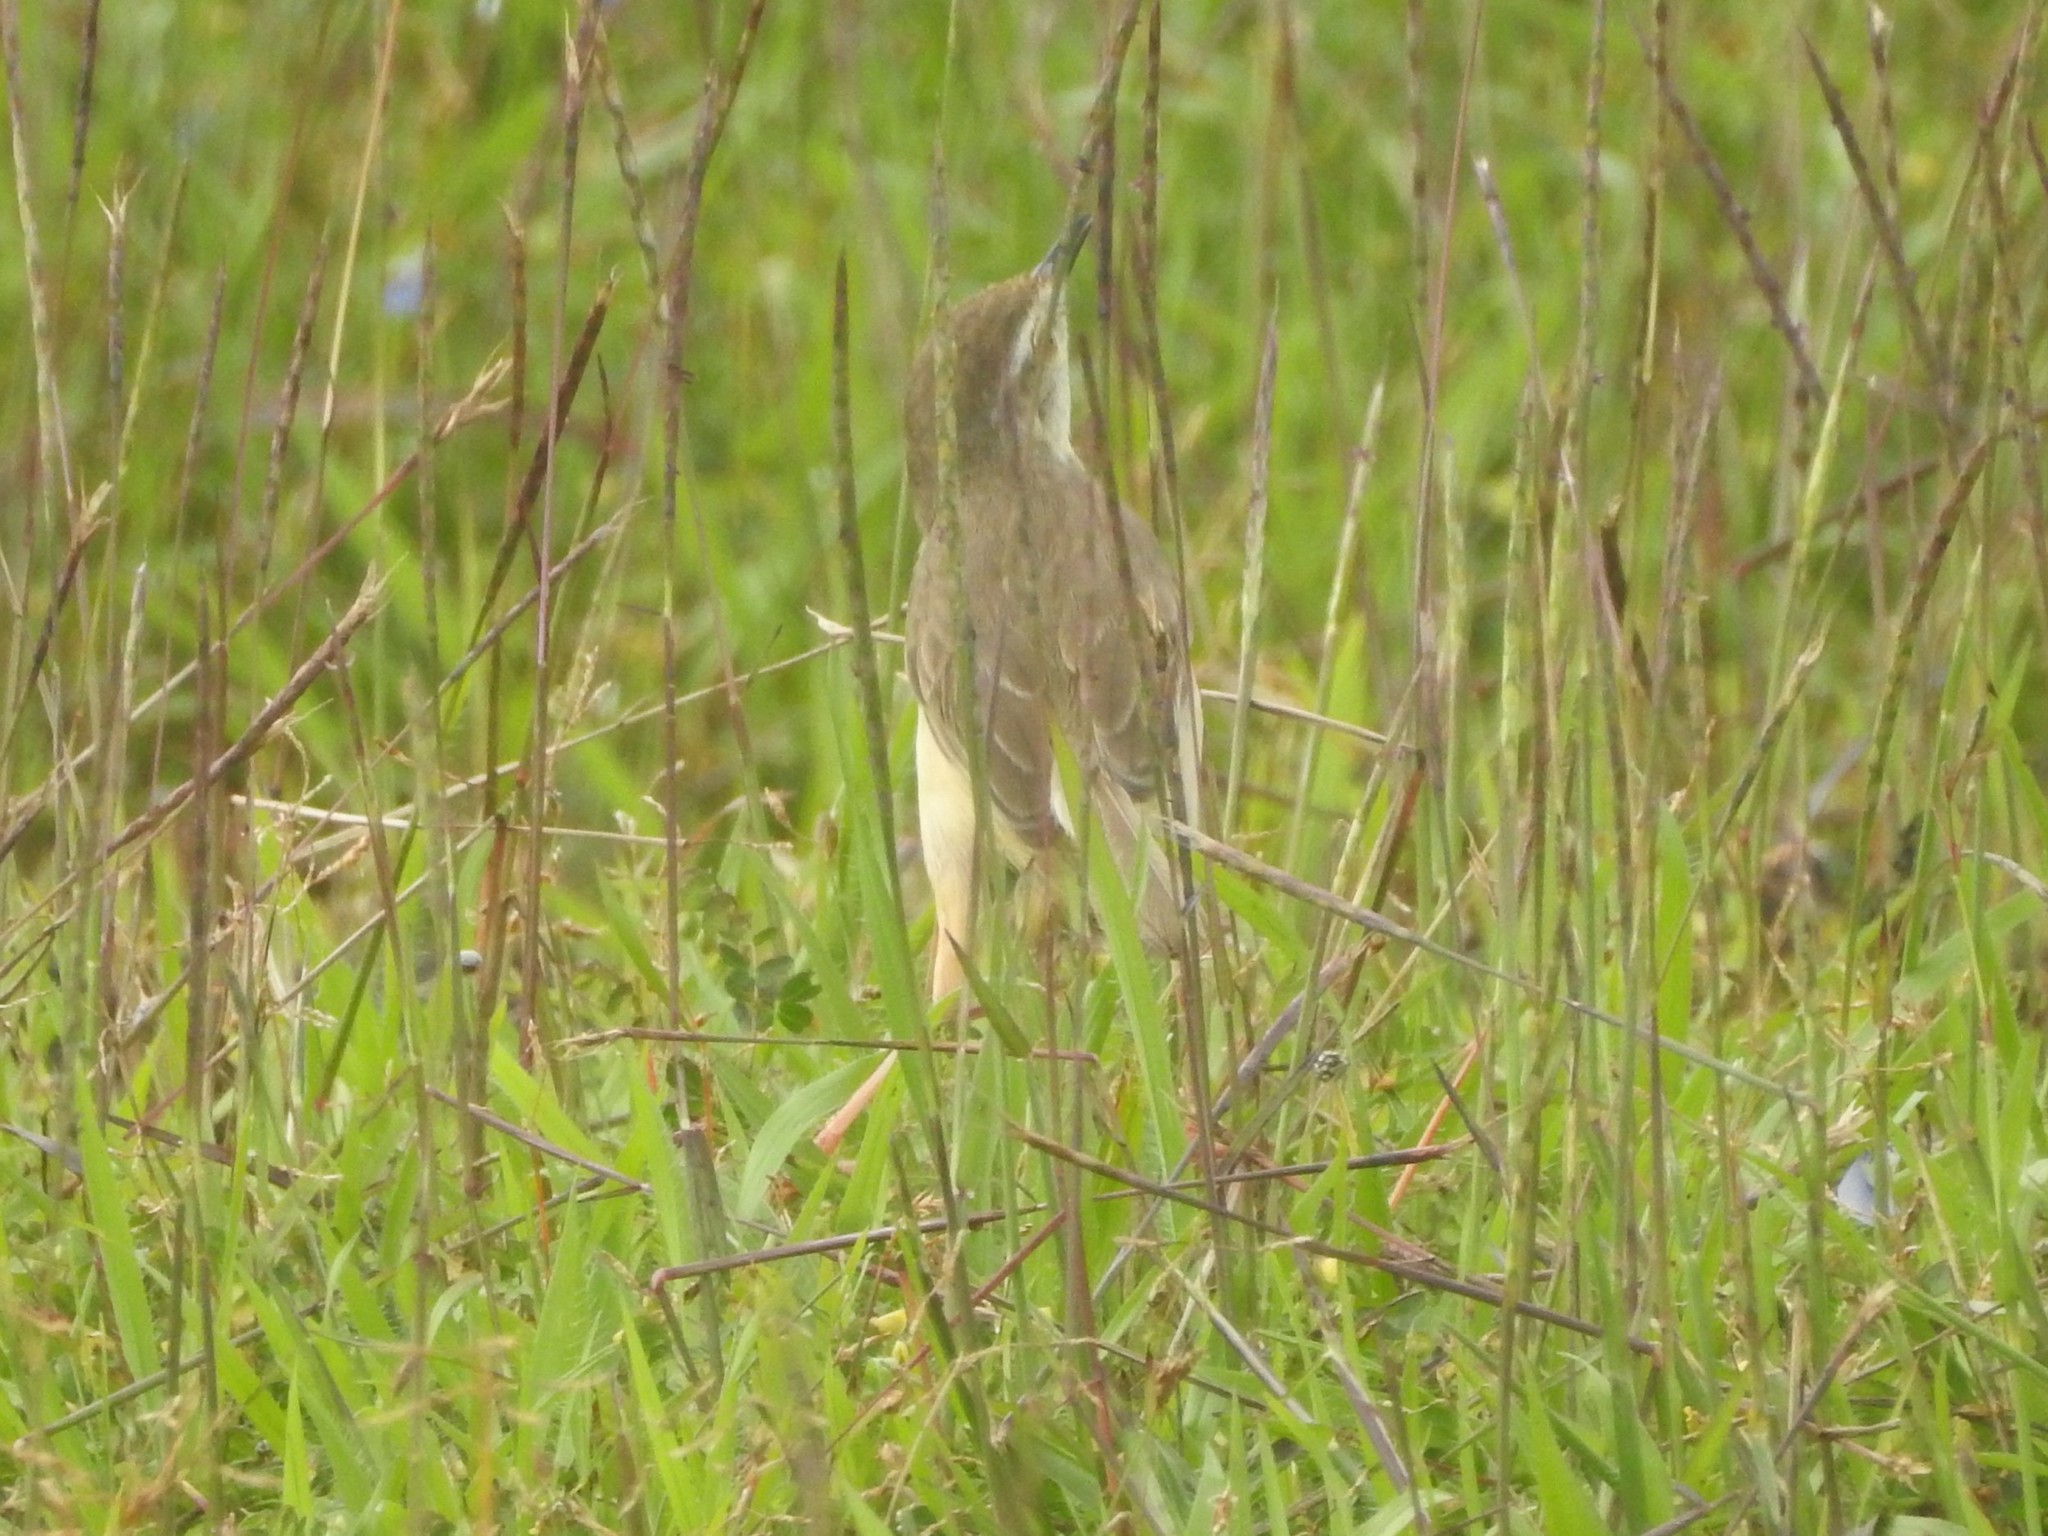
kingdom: Animalia
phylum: Chordata
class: Aves
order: Passeriformes
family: Cisticolidae
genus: Prinia
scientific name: Prinia inornata
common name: Plain prinia
